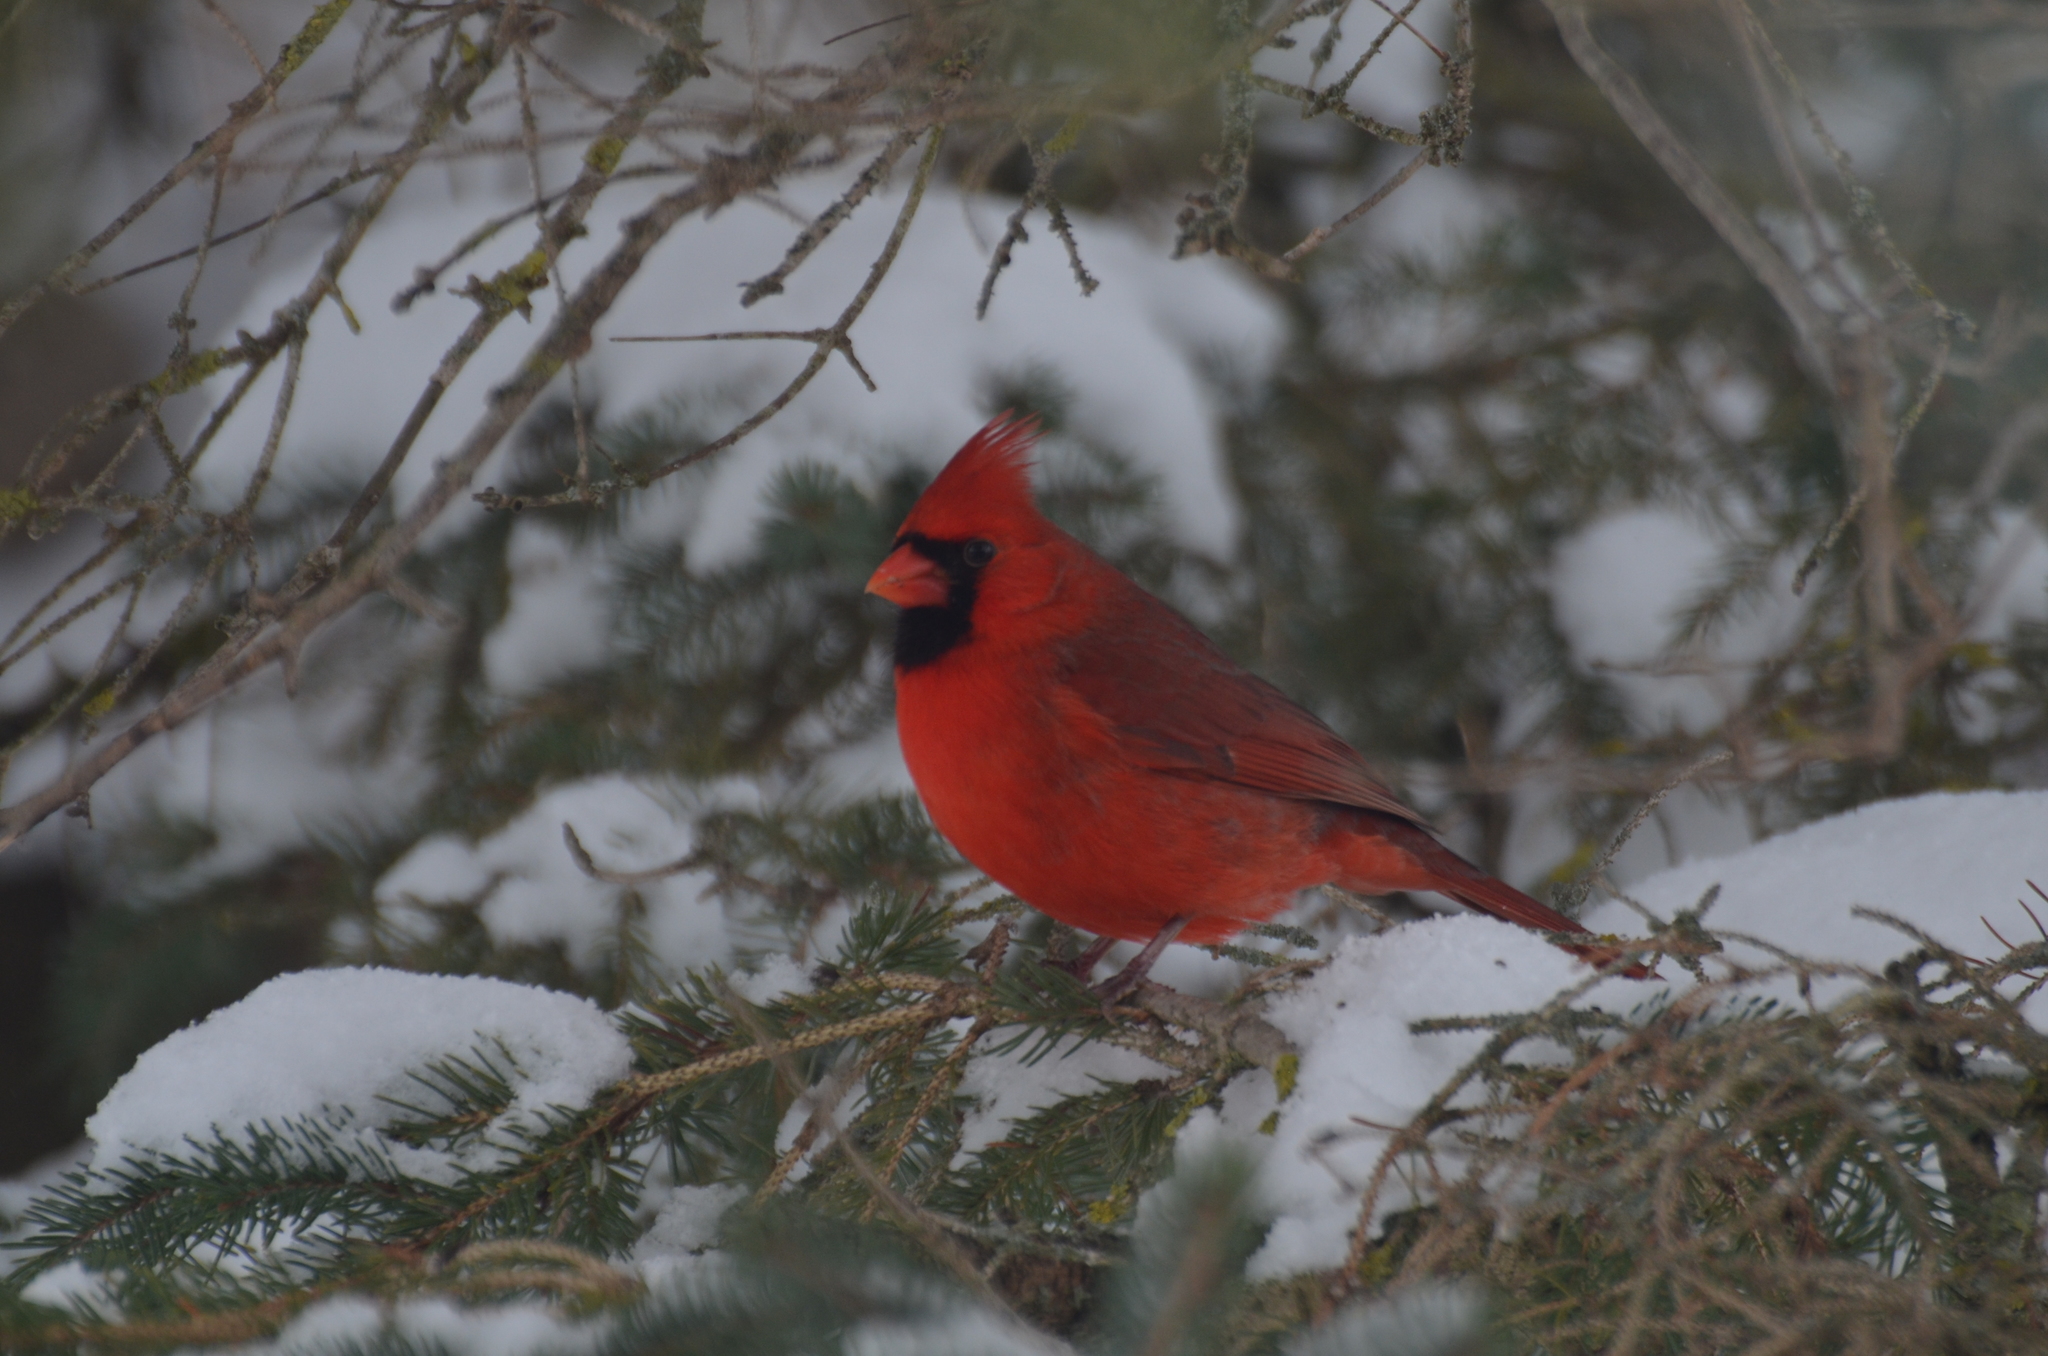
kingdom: Animalia
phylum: Chordata
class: Aves
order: Passeriformes
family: Cardinalidae
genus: Cardinalis
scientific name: Cardinalis cardinalis
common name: Northern cardinal
